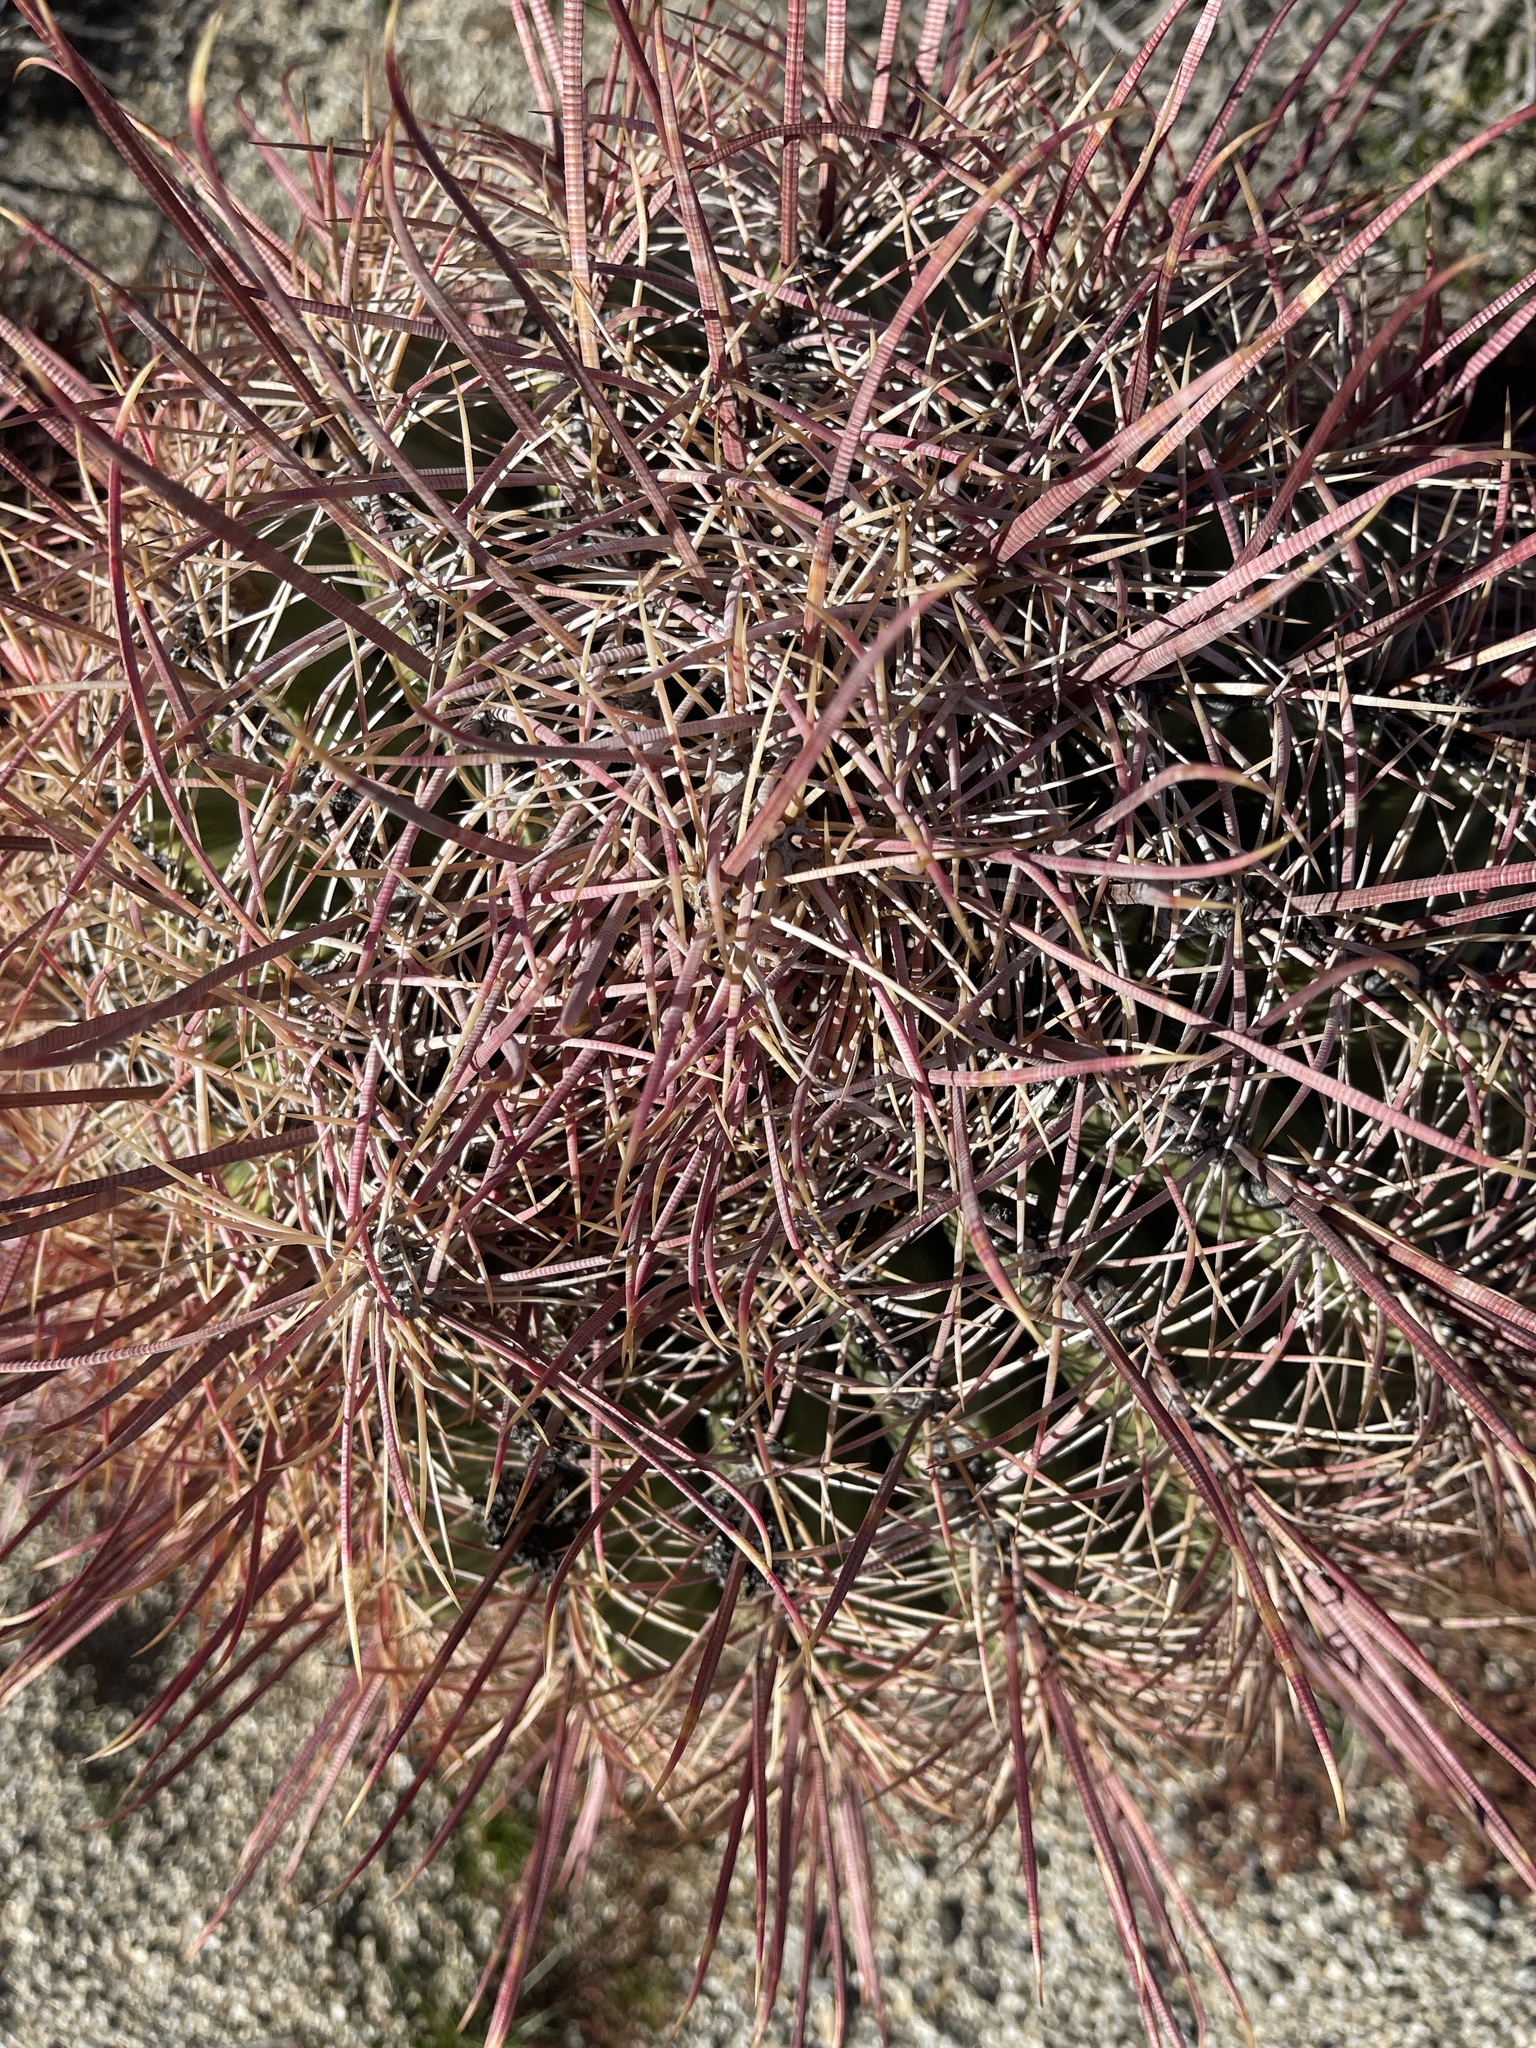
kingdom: Plantae
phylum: Tracheophyta
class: Magnoliopsida
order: Caryophyllales
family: Cactaceae
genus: Ferocactus
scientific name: Ferocactus cylindraceus
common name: California barrel cactus
